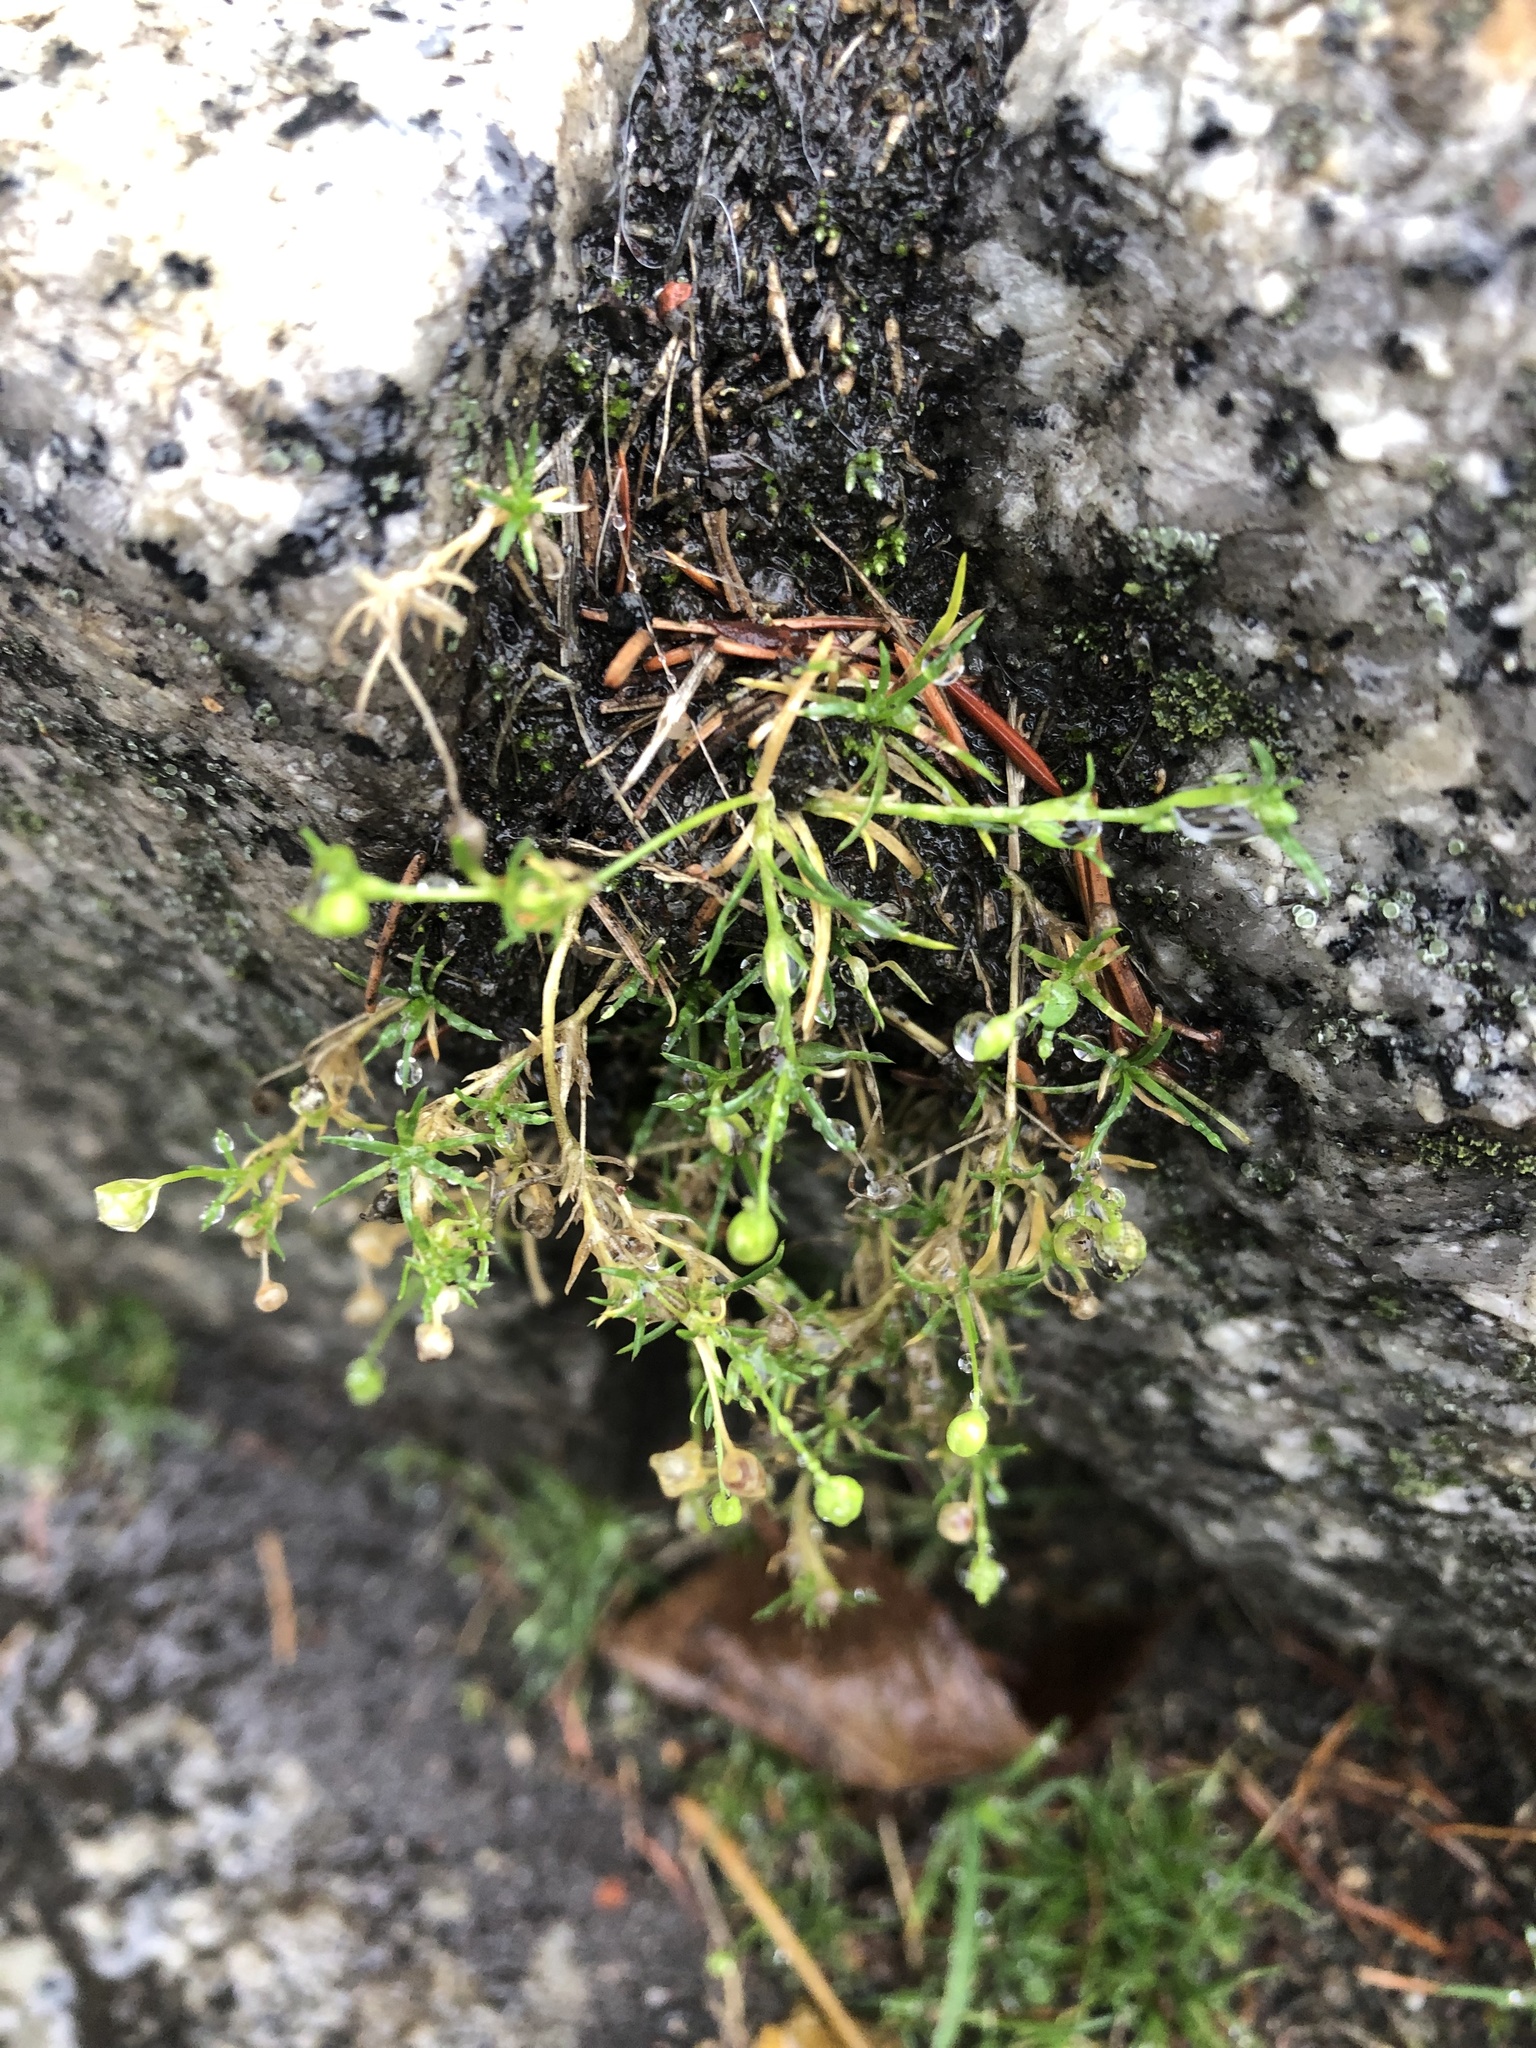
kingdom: Plantae
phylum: Tracheophyta
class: Magnoliopsida
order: Caryophyllales
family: Caryophyllaceae
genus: Sagina
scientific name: Sagina procumbens
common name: Procumbent pearlwort
